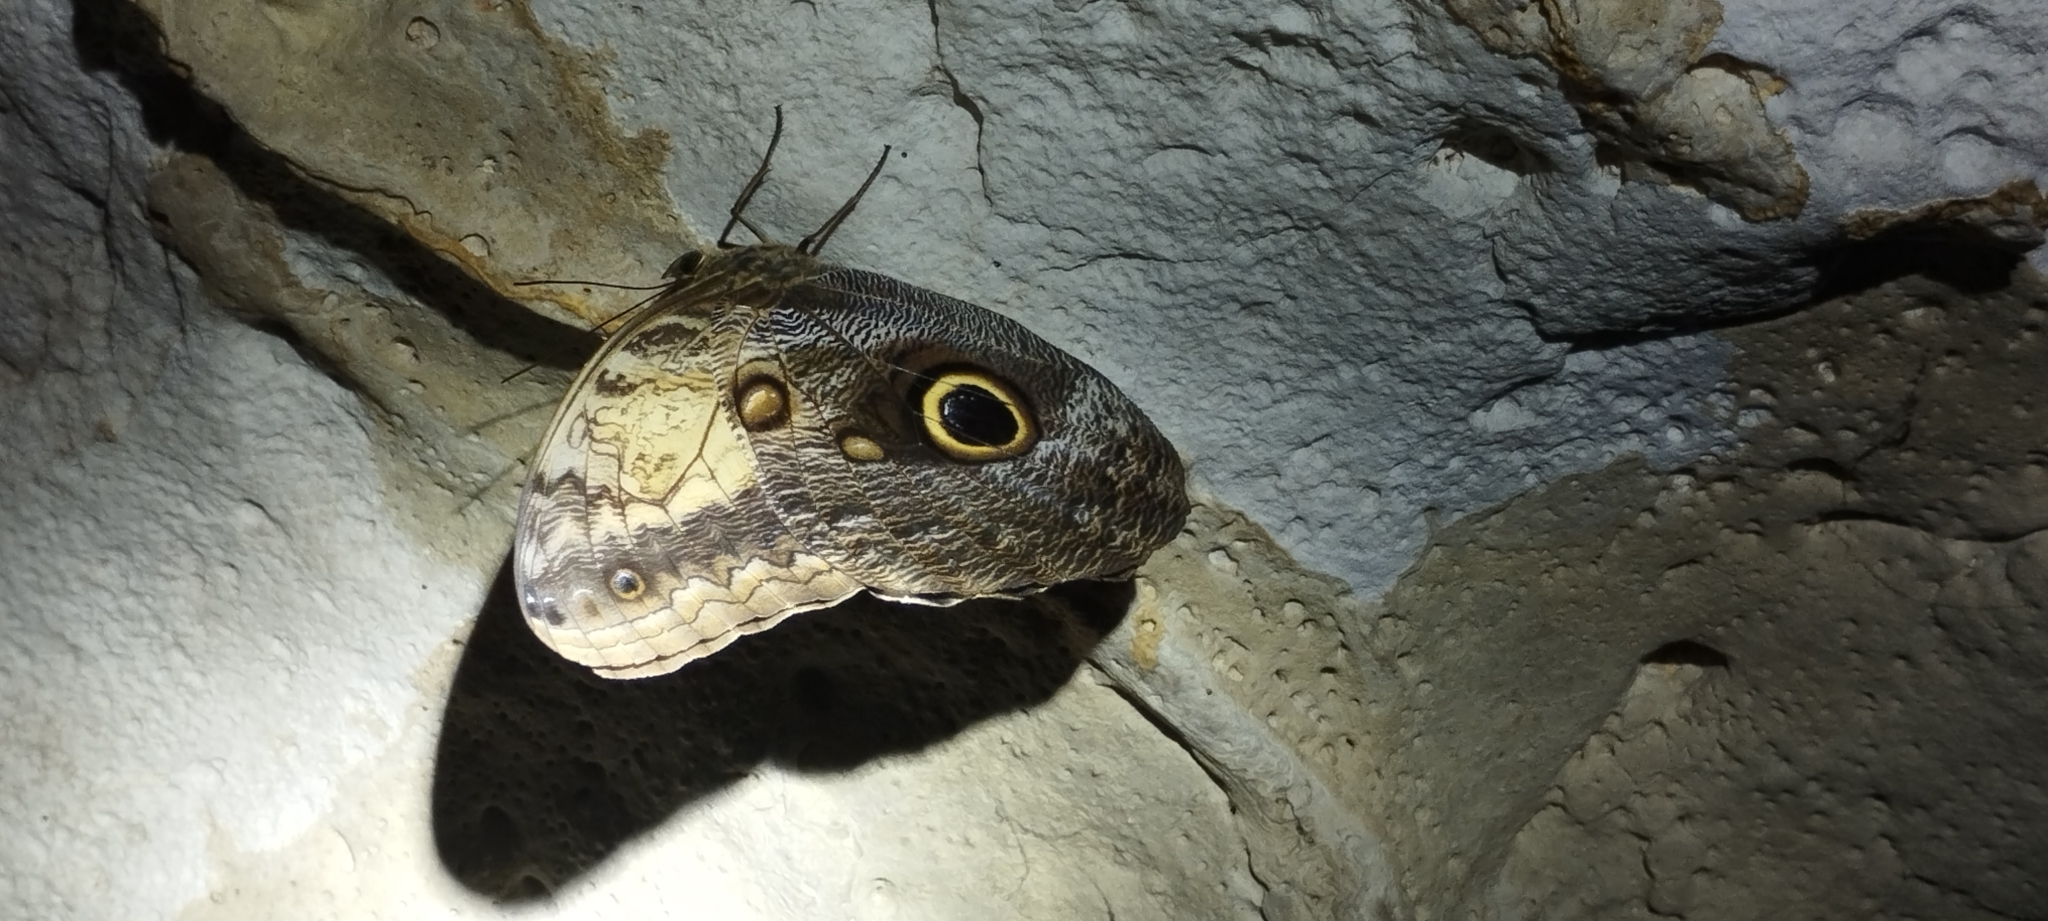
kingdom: Animalia
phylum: Arthropoda
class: Insecta
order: Lepidoptera
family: Nymphalidae
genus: Caligo
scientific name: Caligo telamonius
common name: Pale owl-butterfly
